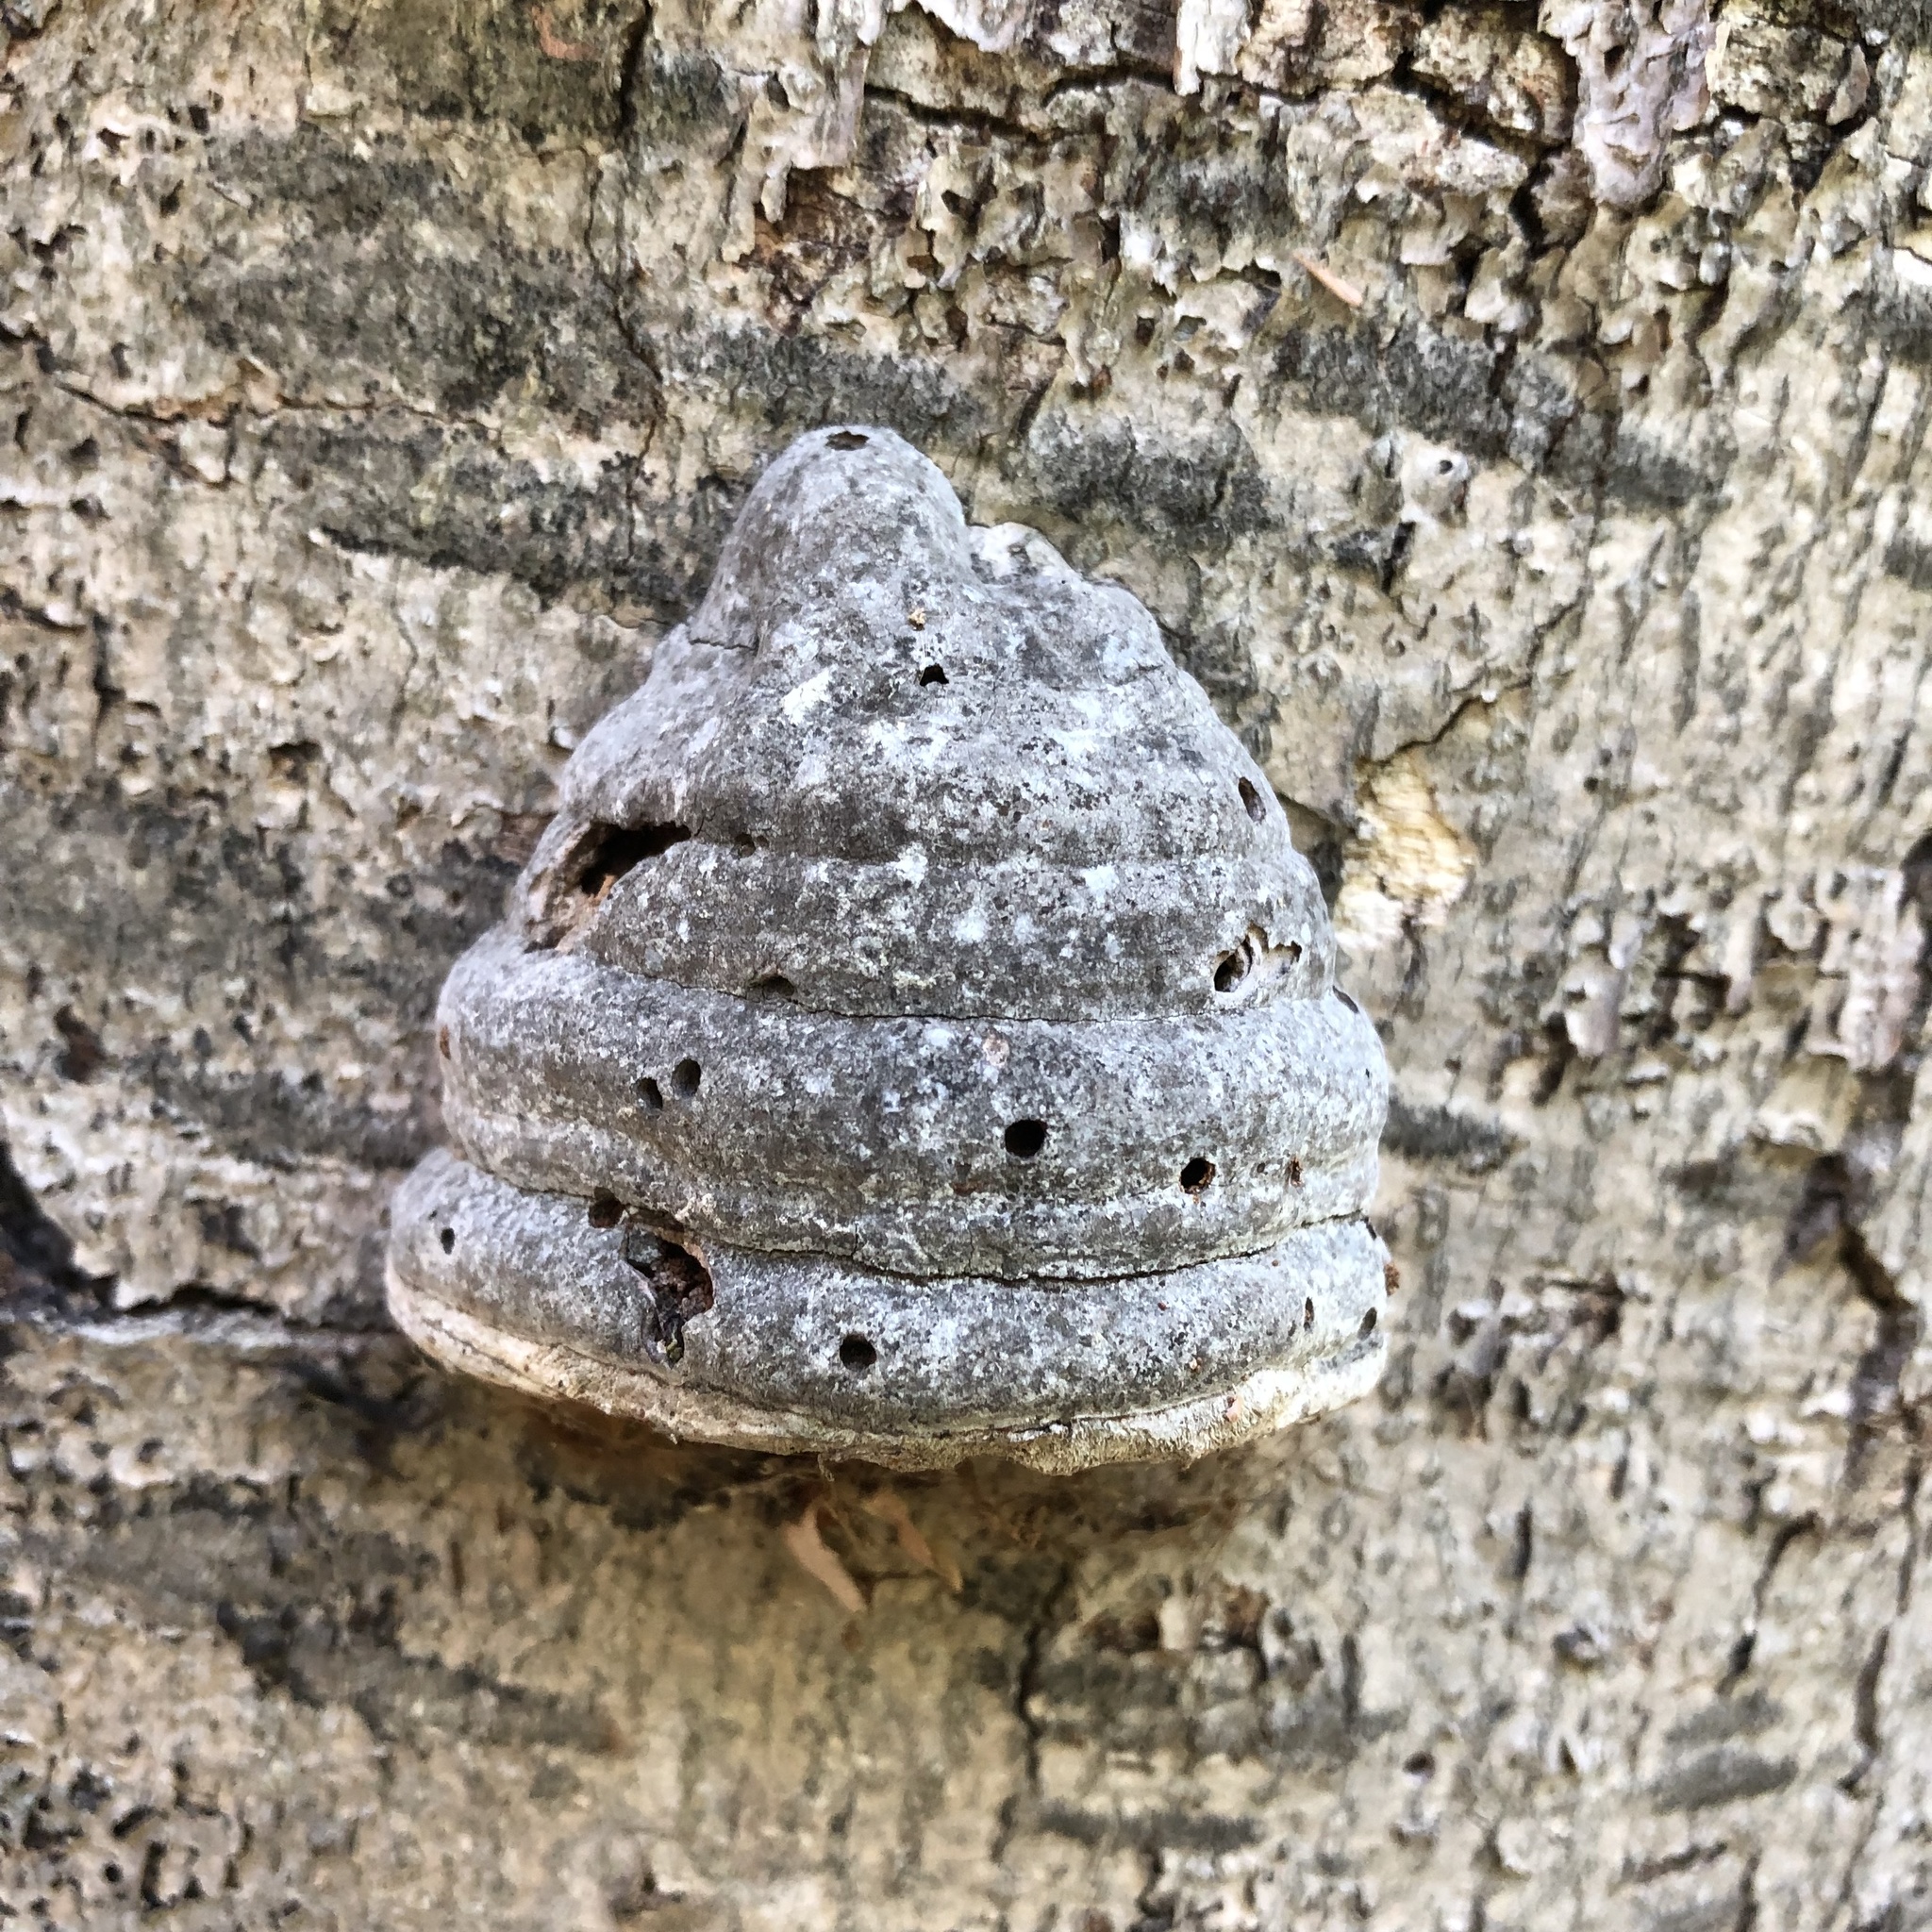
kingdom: Fungi
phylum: Basidiomycota
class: Agaricomycetes
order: Polyporales
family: Polyporaceae
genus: Fomes
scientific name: Fomes fomentarius
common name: Hoof fungus
